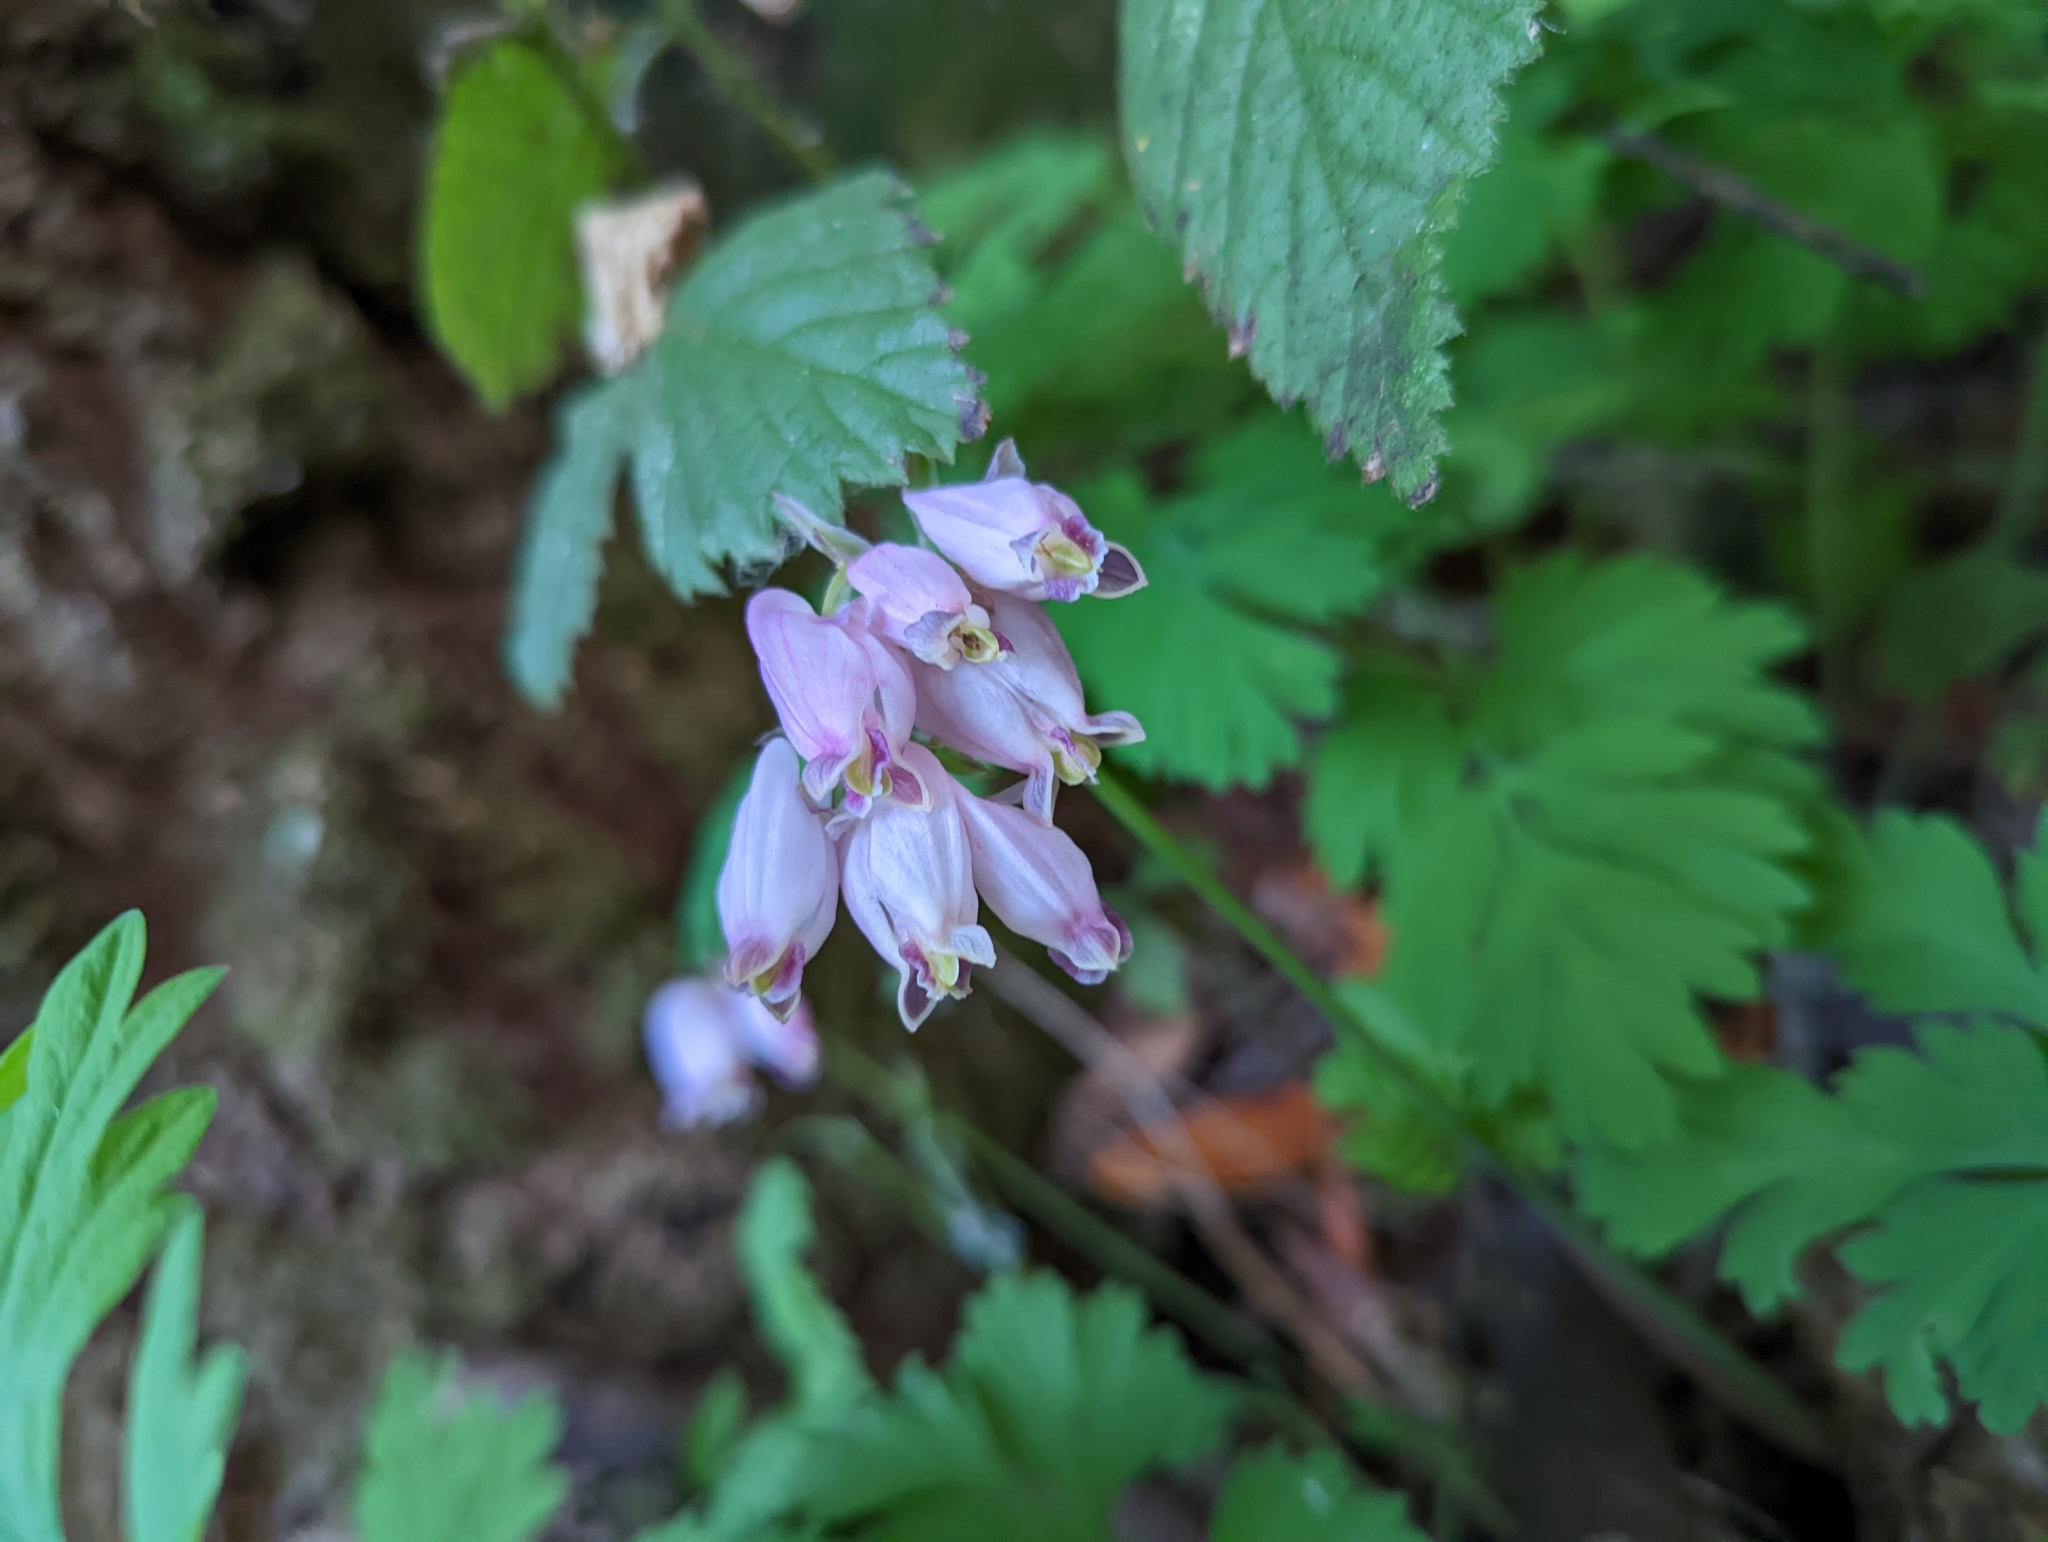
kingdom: Plantae
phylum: Tracheophyta
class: Magnoliopsida
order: Ranunculales
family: Papaveraceae
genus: Dicentra
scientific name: Dicentra formosa
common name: Bleeding-heart
